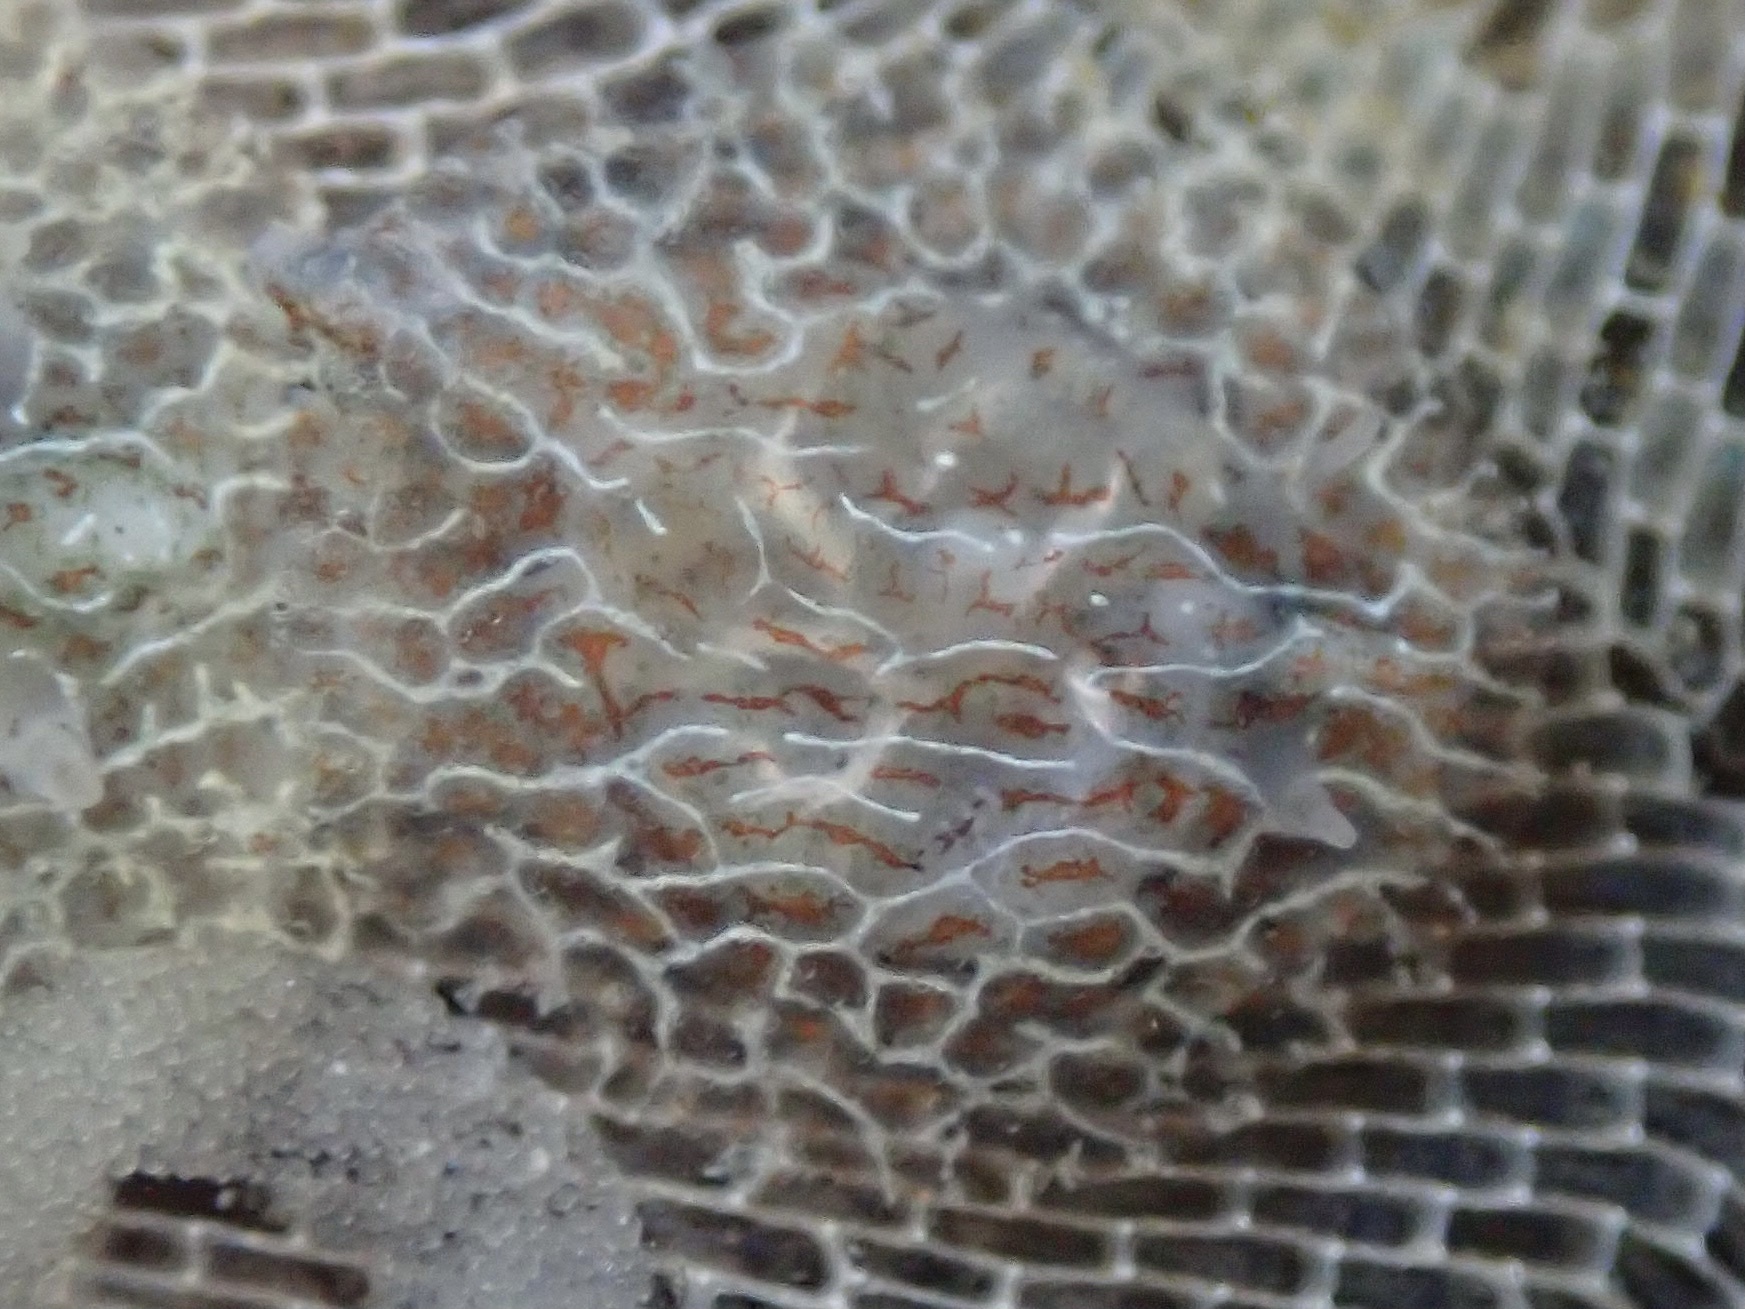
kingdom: Animalia
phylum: Mollusca
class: Gastropoda
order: Nudibranchia
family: Corambidae
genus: Corambe
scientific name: Corambe steinbergae
